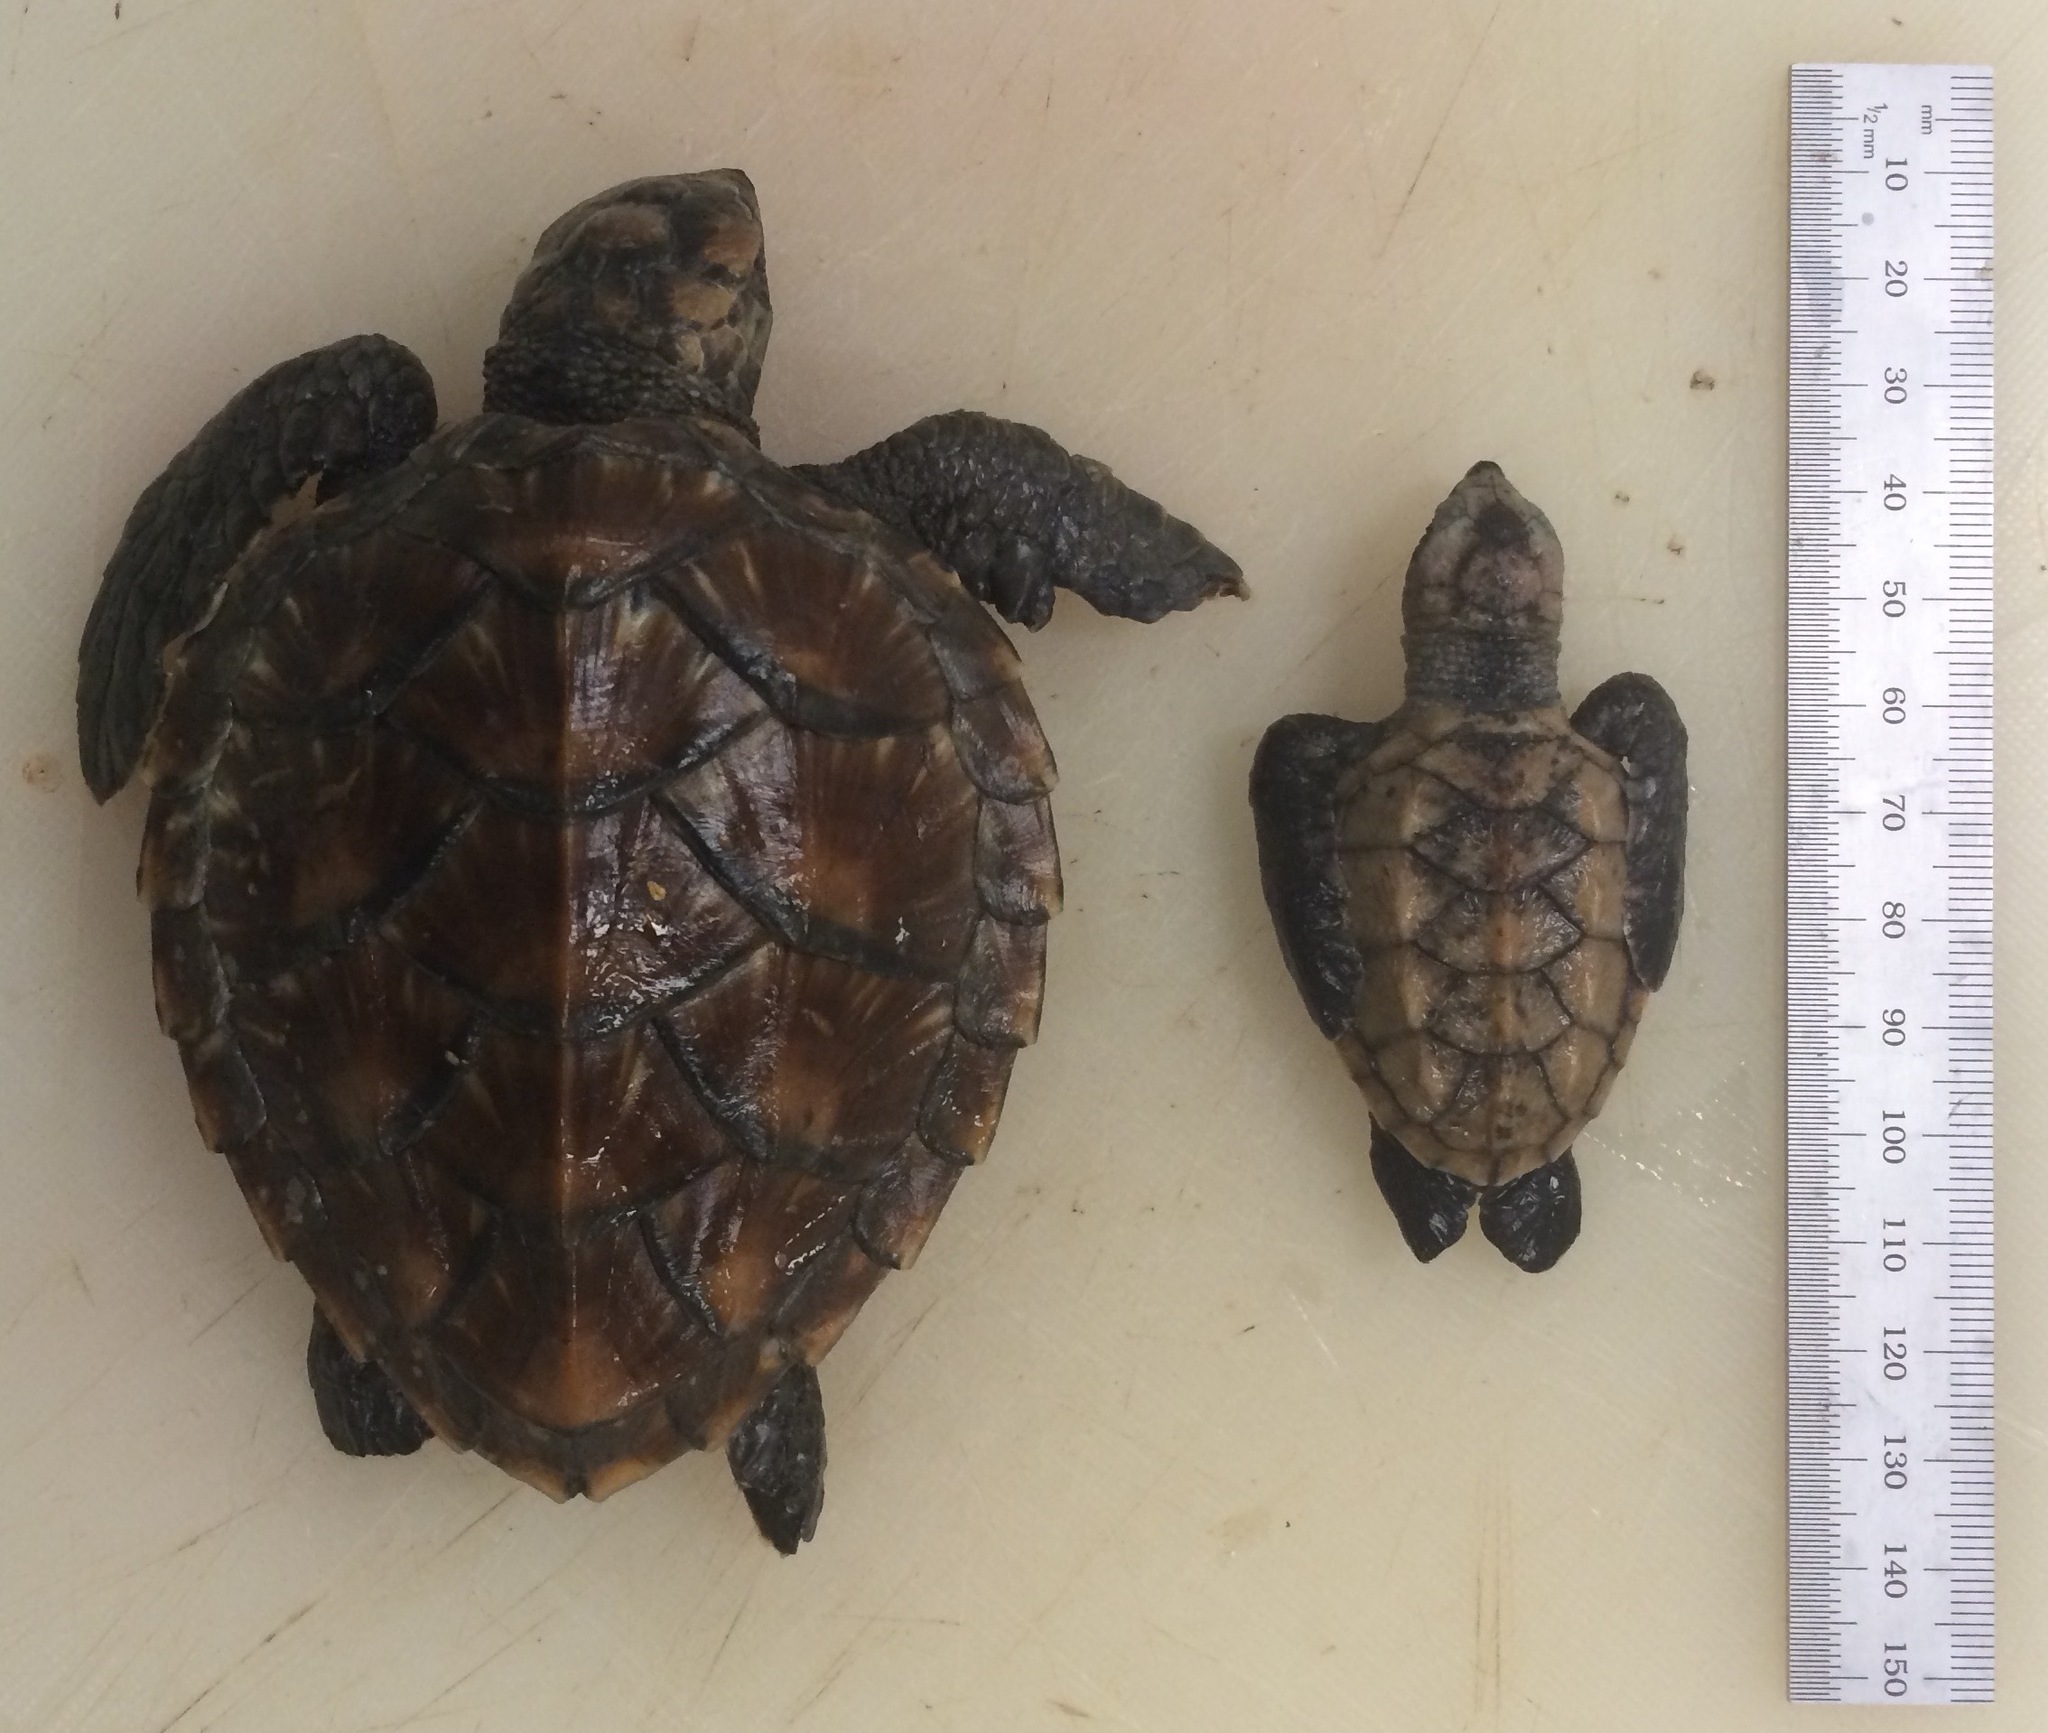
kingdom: Animalia
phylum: Chordata
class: Testudines
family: Cheloniidae
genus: Eretmochelys
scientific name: Eretmochelys imbricata
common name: Hawksbill turtle
